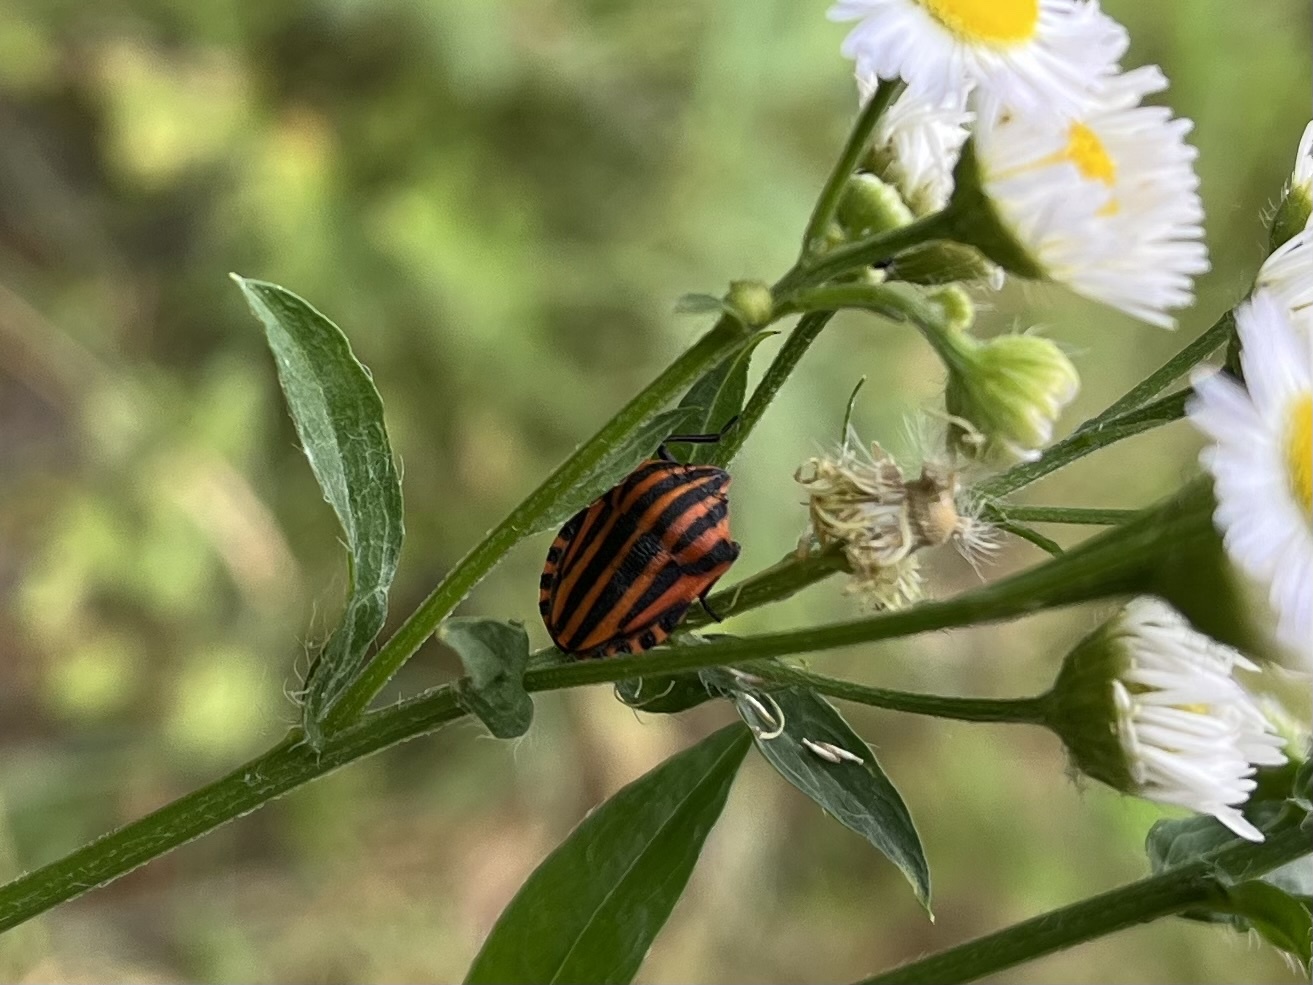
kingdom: Animalia
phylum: Arthropoda
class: Insecta
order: Hemiptera
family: Pentatomidae
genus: Graphosoma
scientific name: Graphosoma italicum
